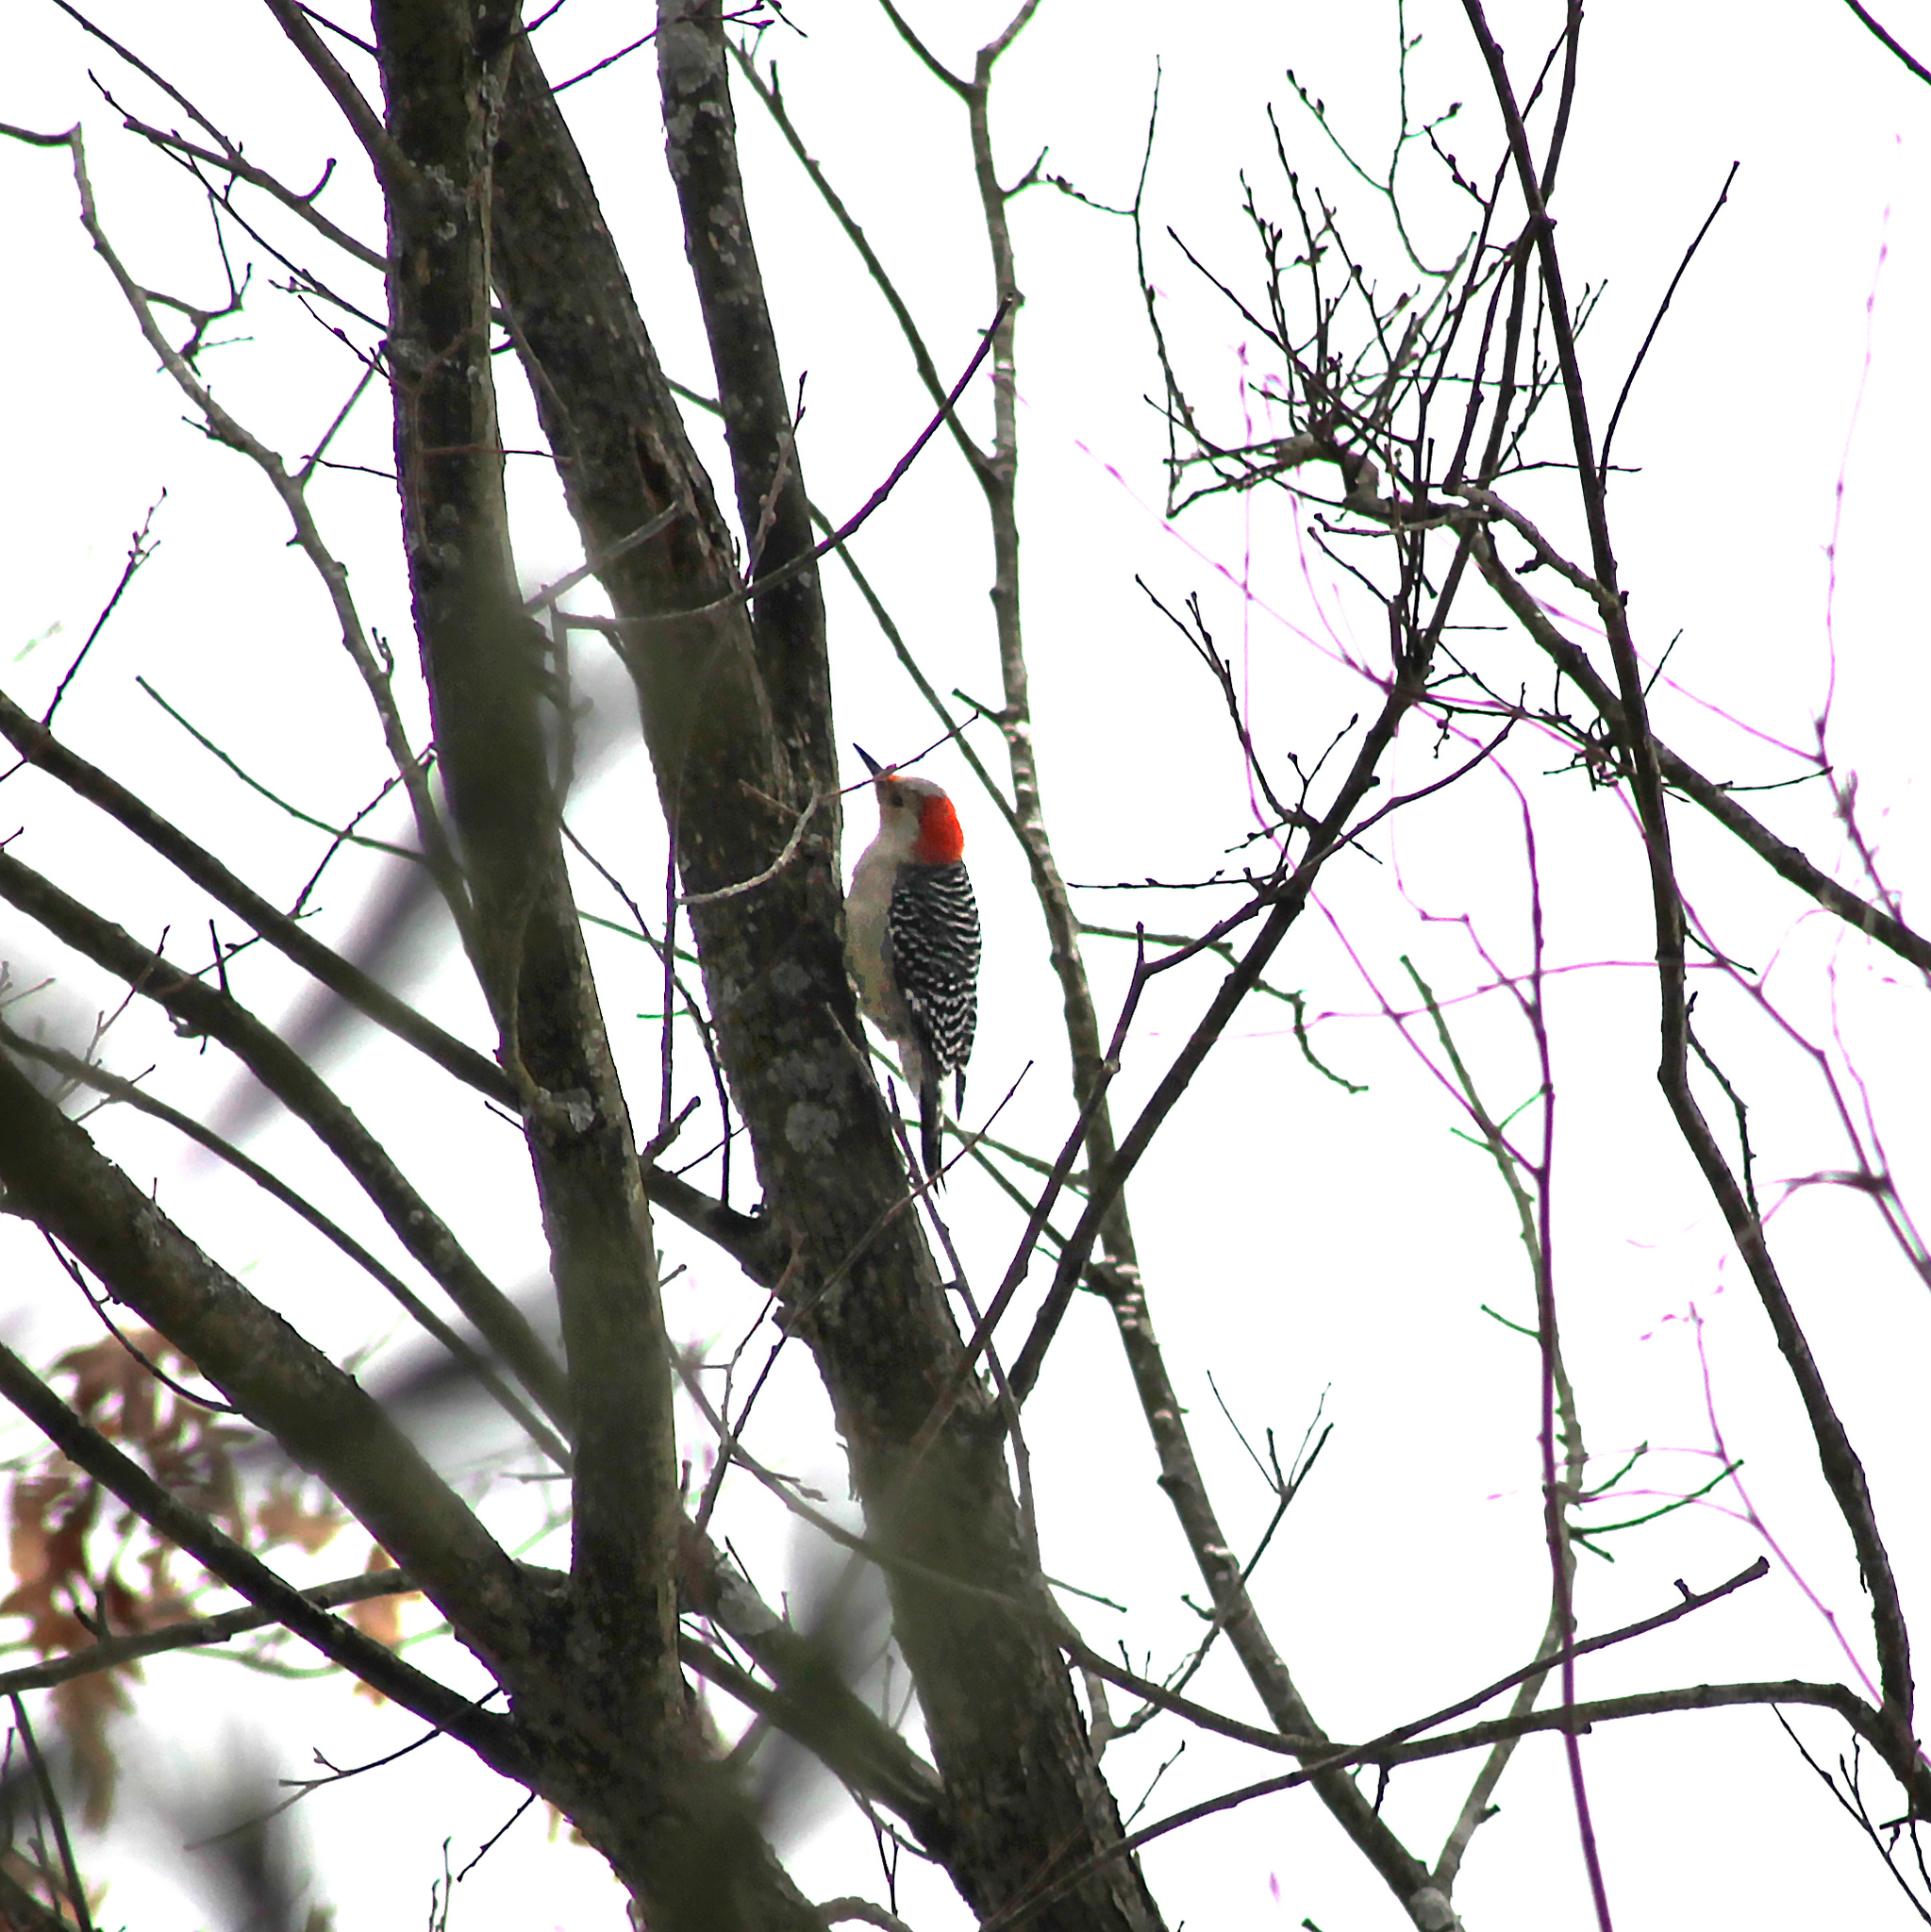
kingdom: Animalia
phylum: Chordata
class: Aves
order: Piciformes
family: Picidae
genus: Melanerpes
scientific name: Melanerpes carolinus
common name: Red-bellied woodpecker
